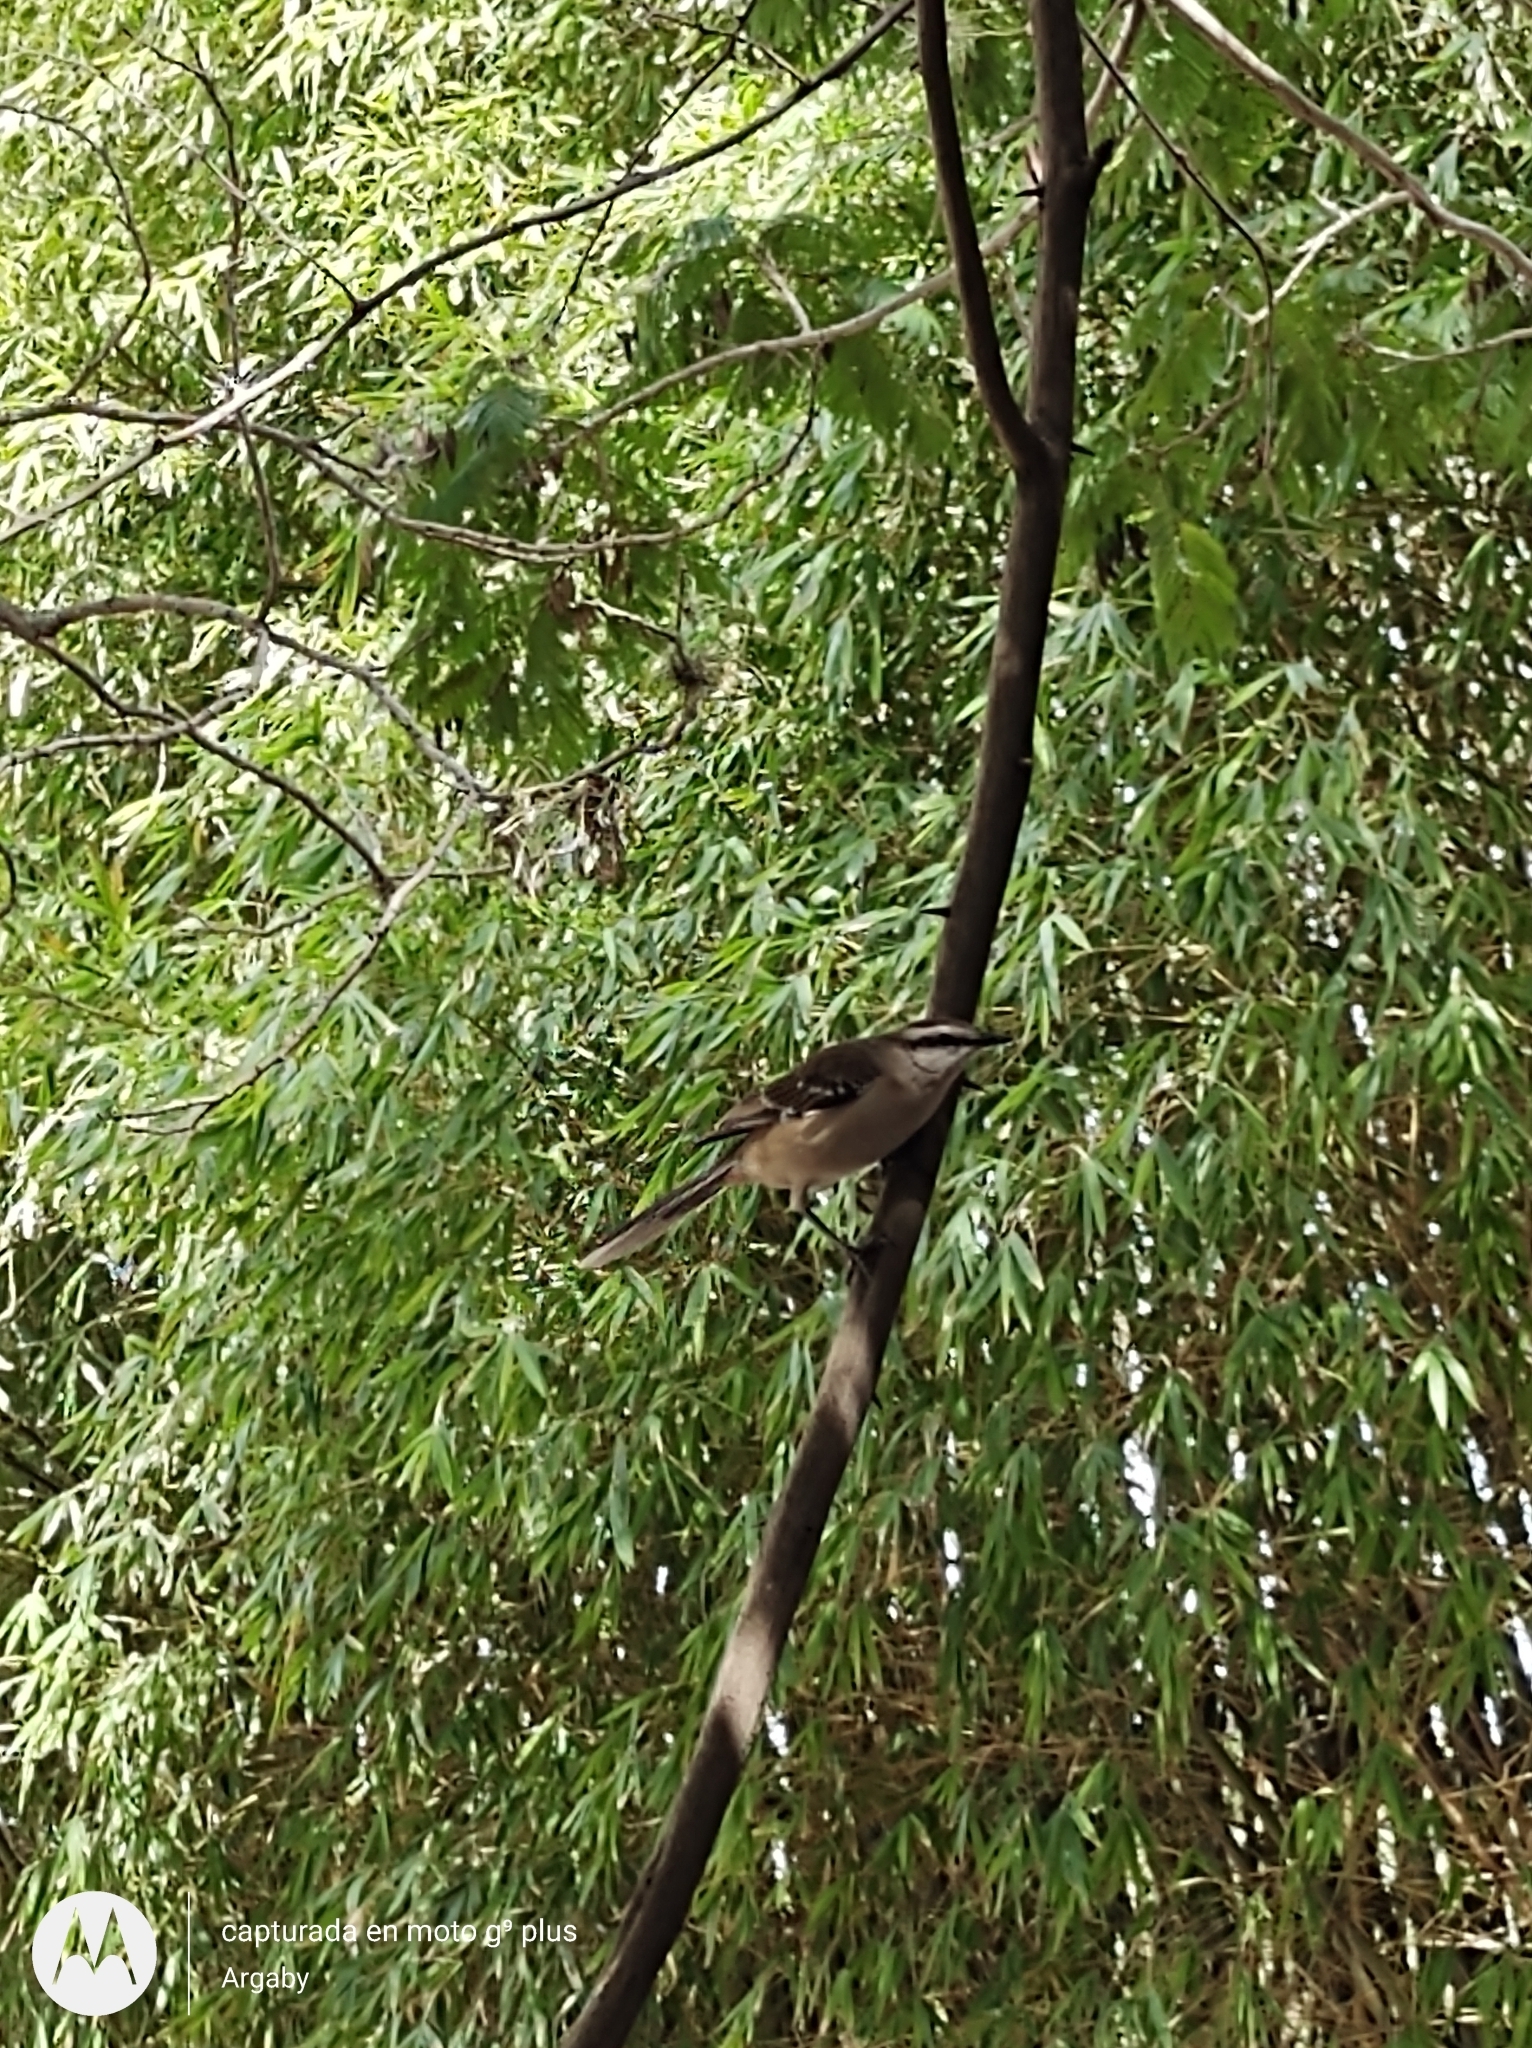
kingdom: Animalia
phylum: Chordata
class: Aves
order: Passeriformes
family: Mimidae
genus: Mimus
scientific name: Mimus saturninus
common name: Chalk-browed mockingbird
